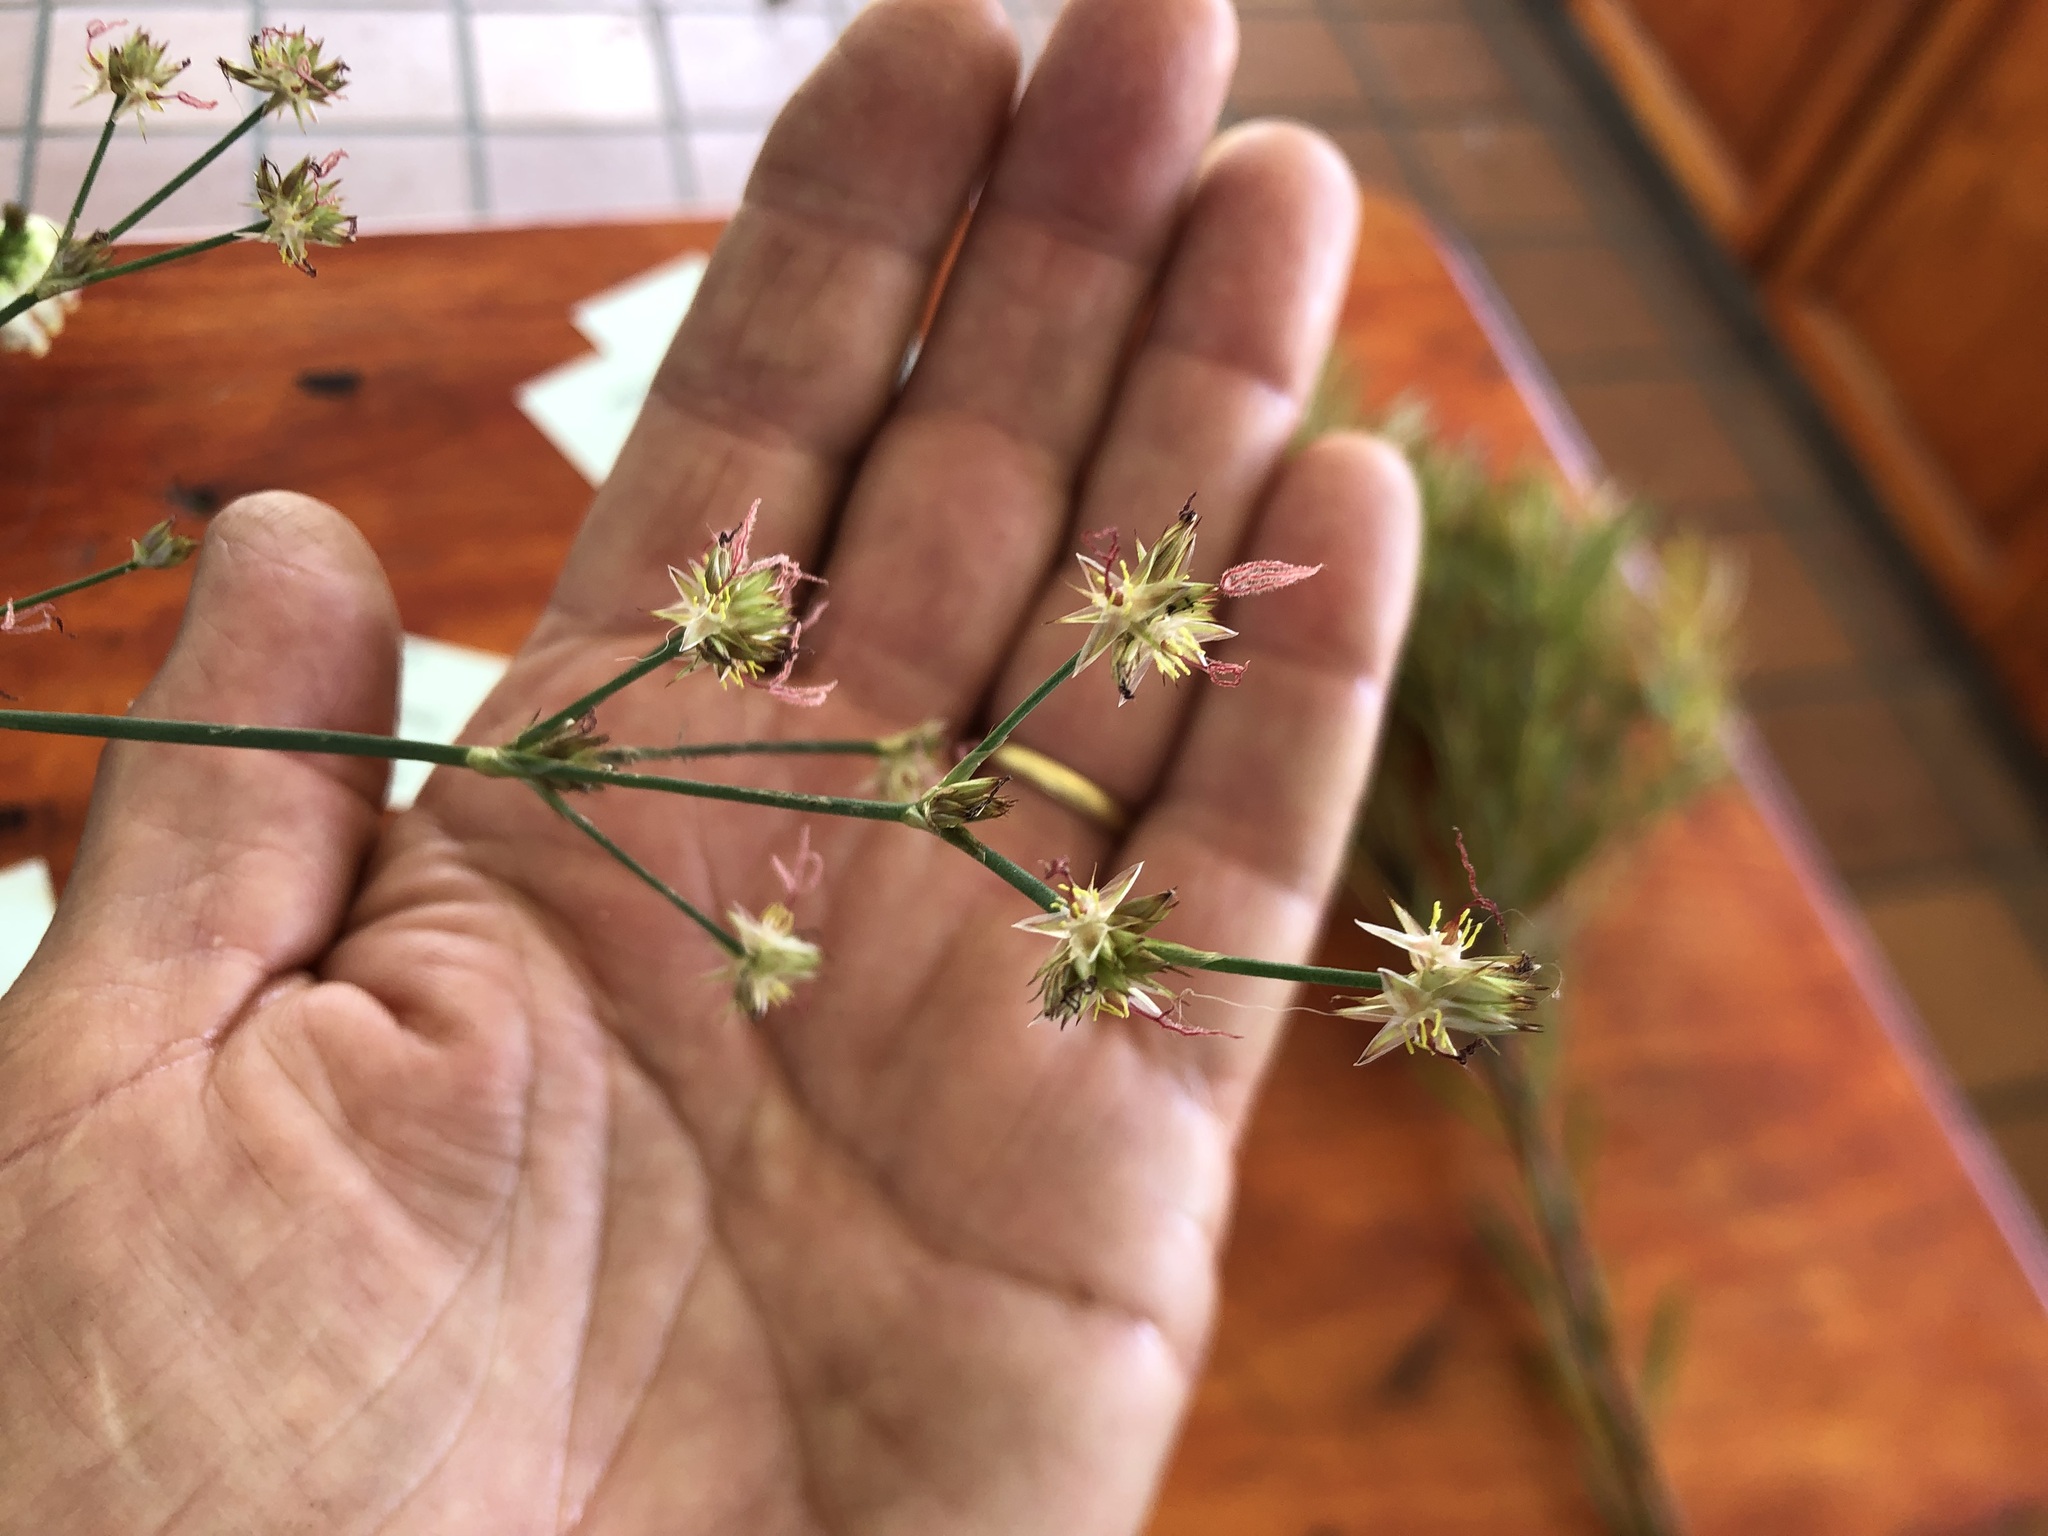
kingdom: Plantae
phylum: Tracheophyta
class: Liliopsida
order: Poales
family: Juncaceae
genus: Juncus
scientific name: Juncus lomatophyllus
